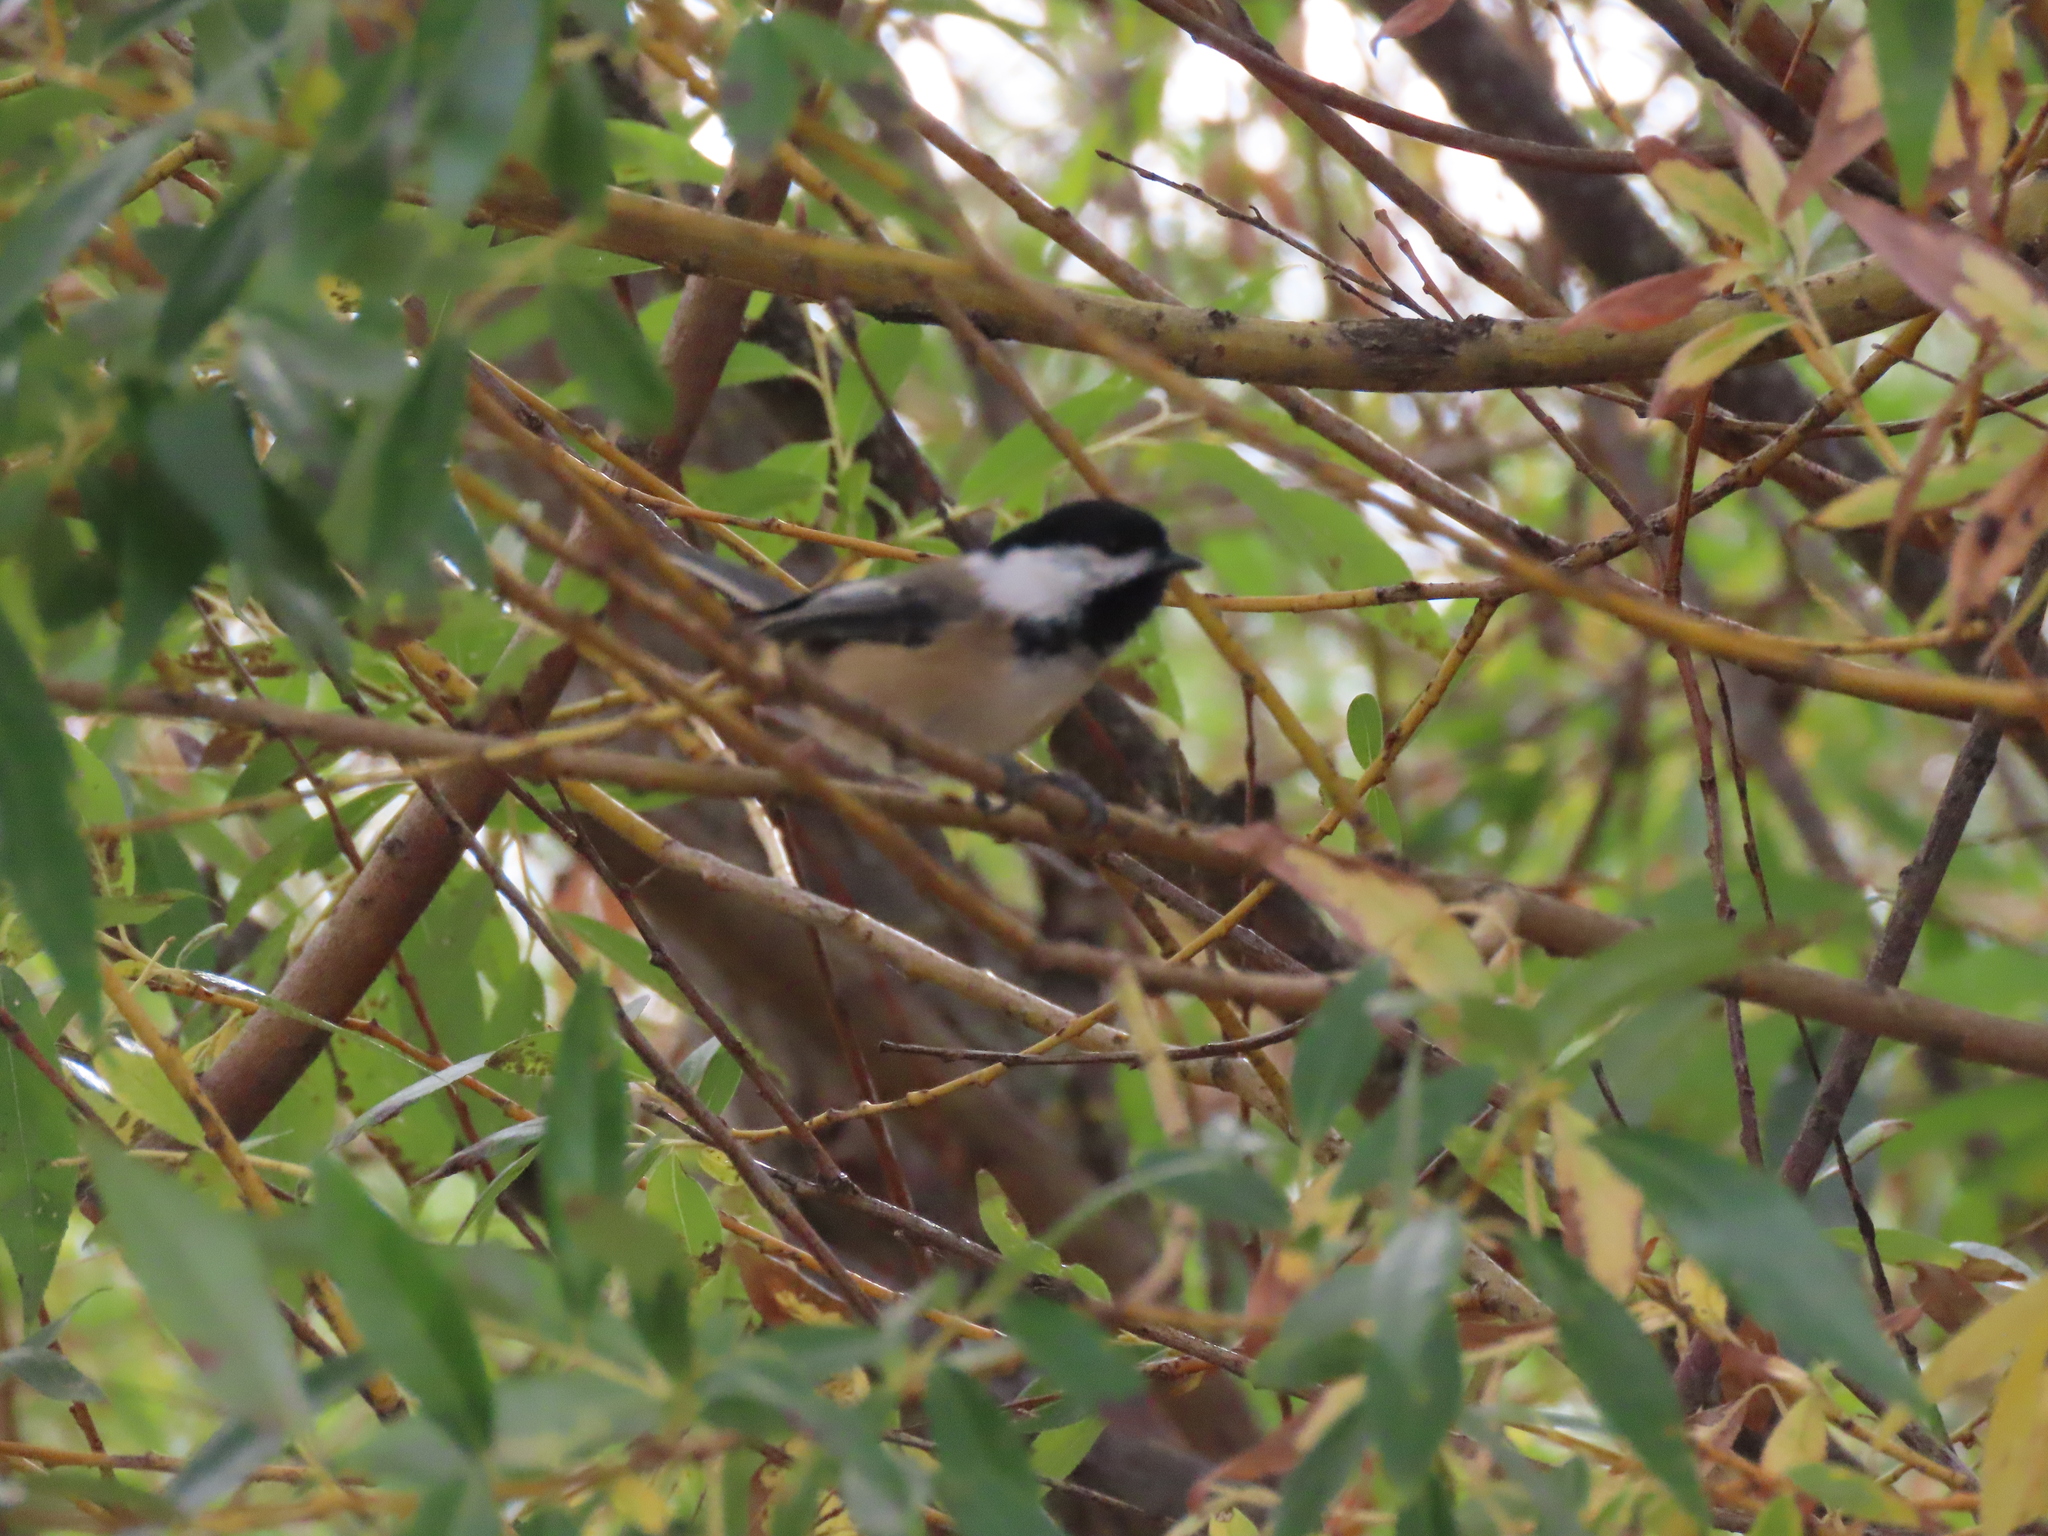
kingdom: Animalia
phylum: Chordata
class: Aves
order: Passeriformes
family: Paridae
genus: Poecile
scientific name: Poecile atricapillus
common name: Black-capped chickadee
